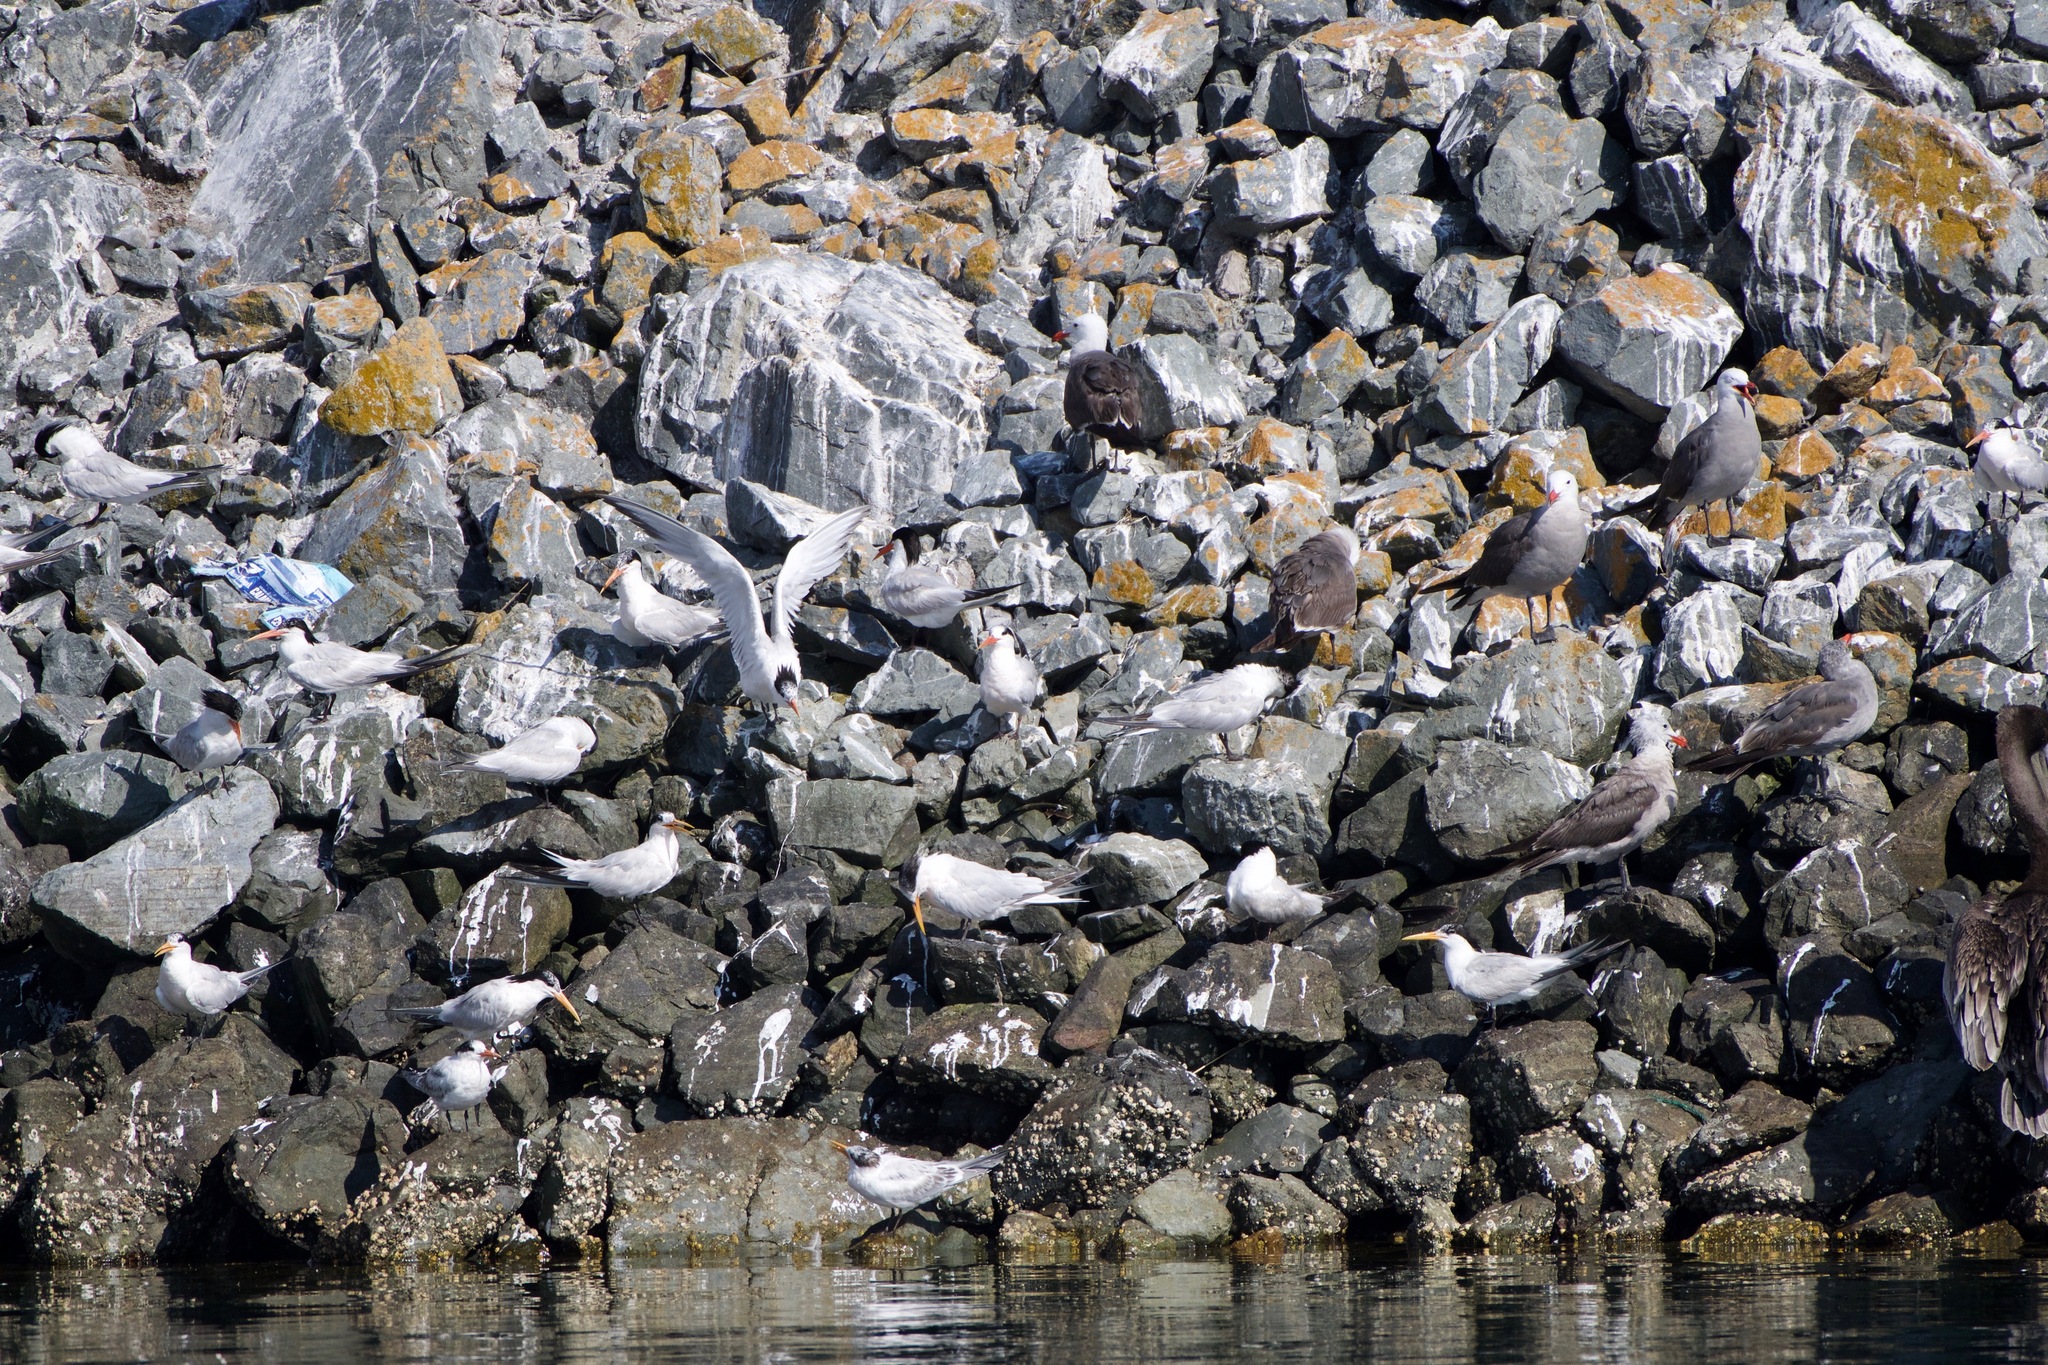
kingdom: Animalia
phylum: Chordata
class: Aves
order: Charadriiformes
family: Laridae
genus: Thalasseus
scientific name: Thalasseus elegans
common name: Elegant tern
